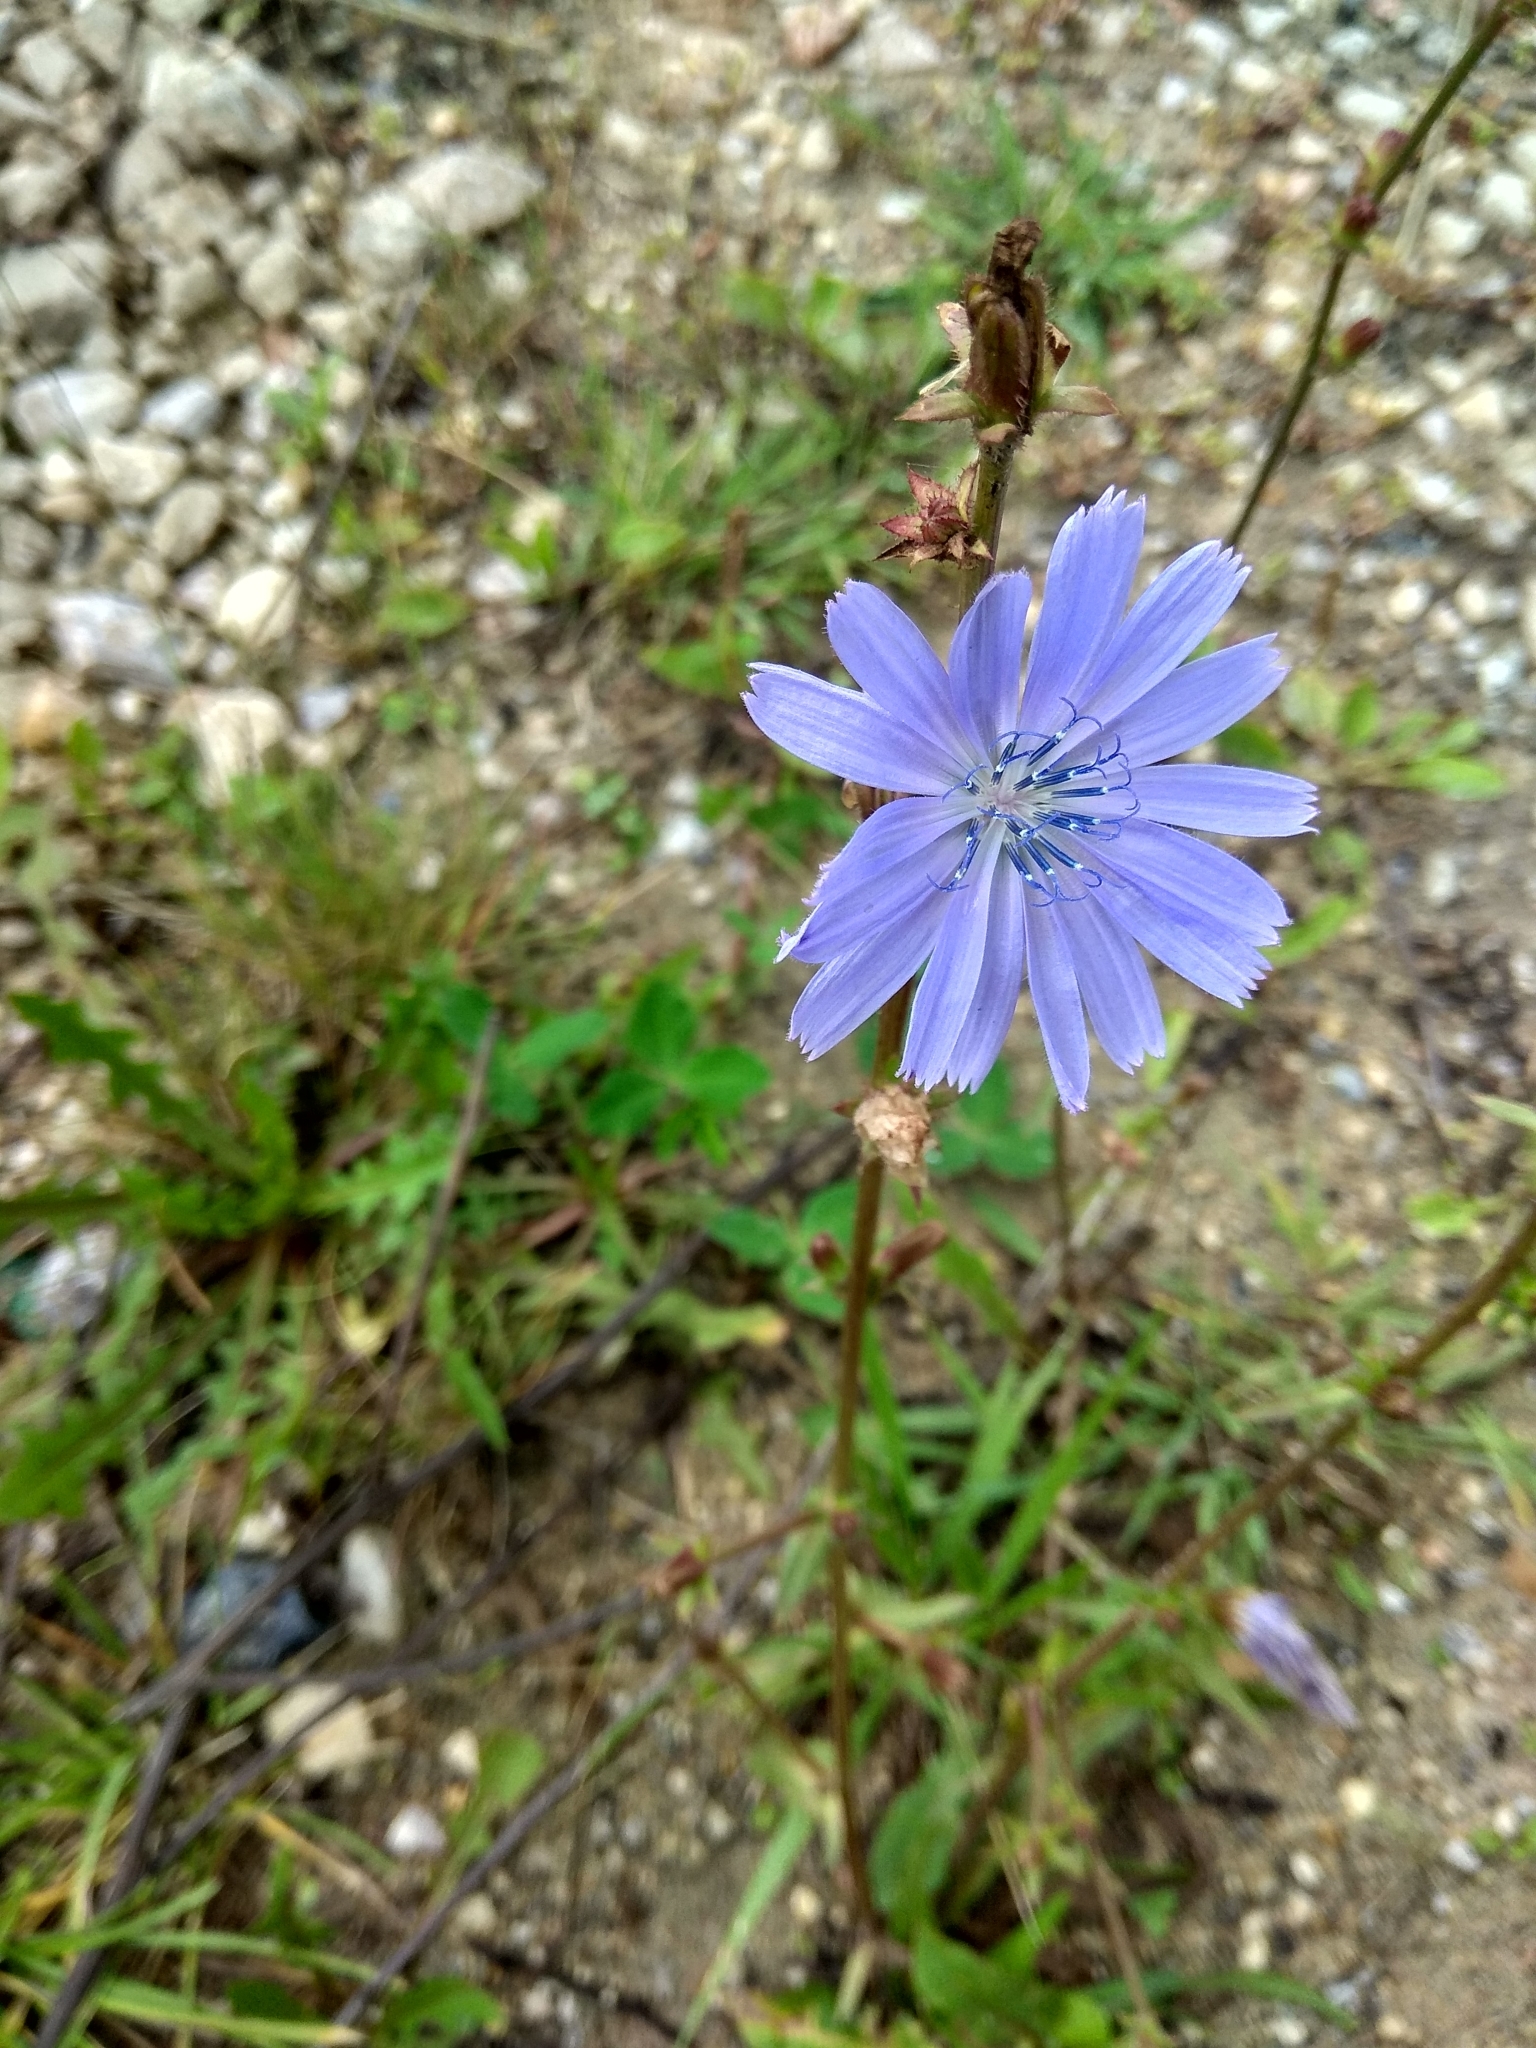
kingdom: Plantae
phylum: Tracheophyta
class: Magnoliopsida
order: Asterales
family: Asteraceae
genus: Cichorium
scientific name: Cichorium intybus
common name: Chicory
